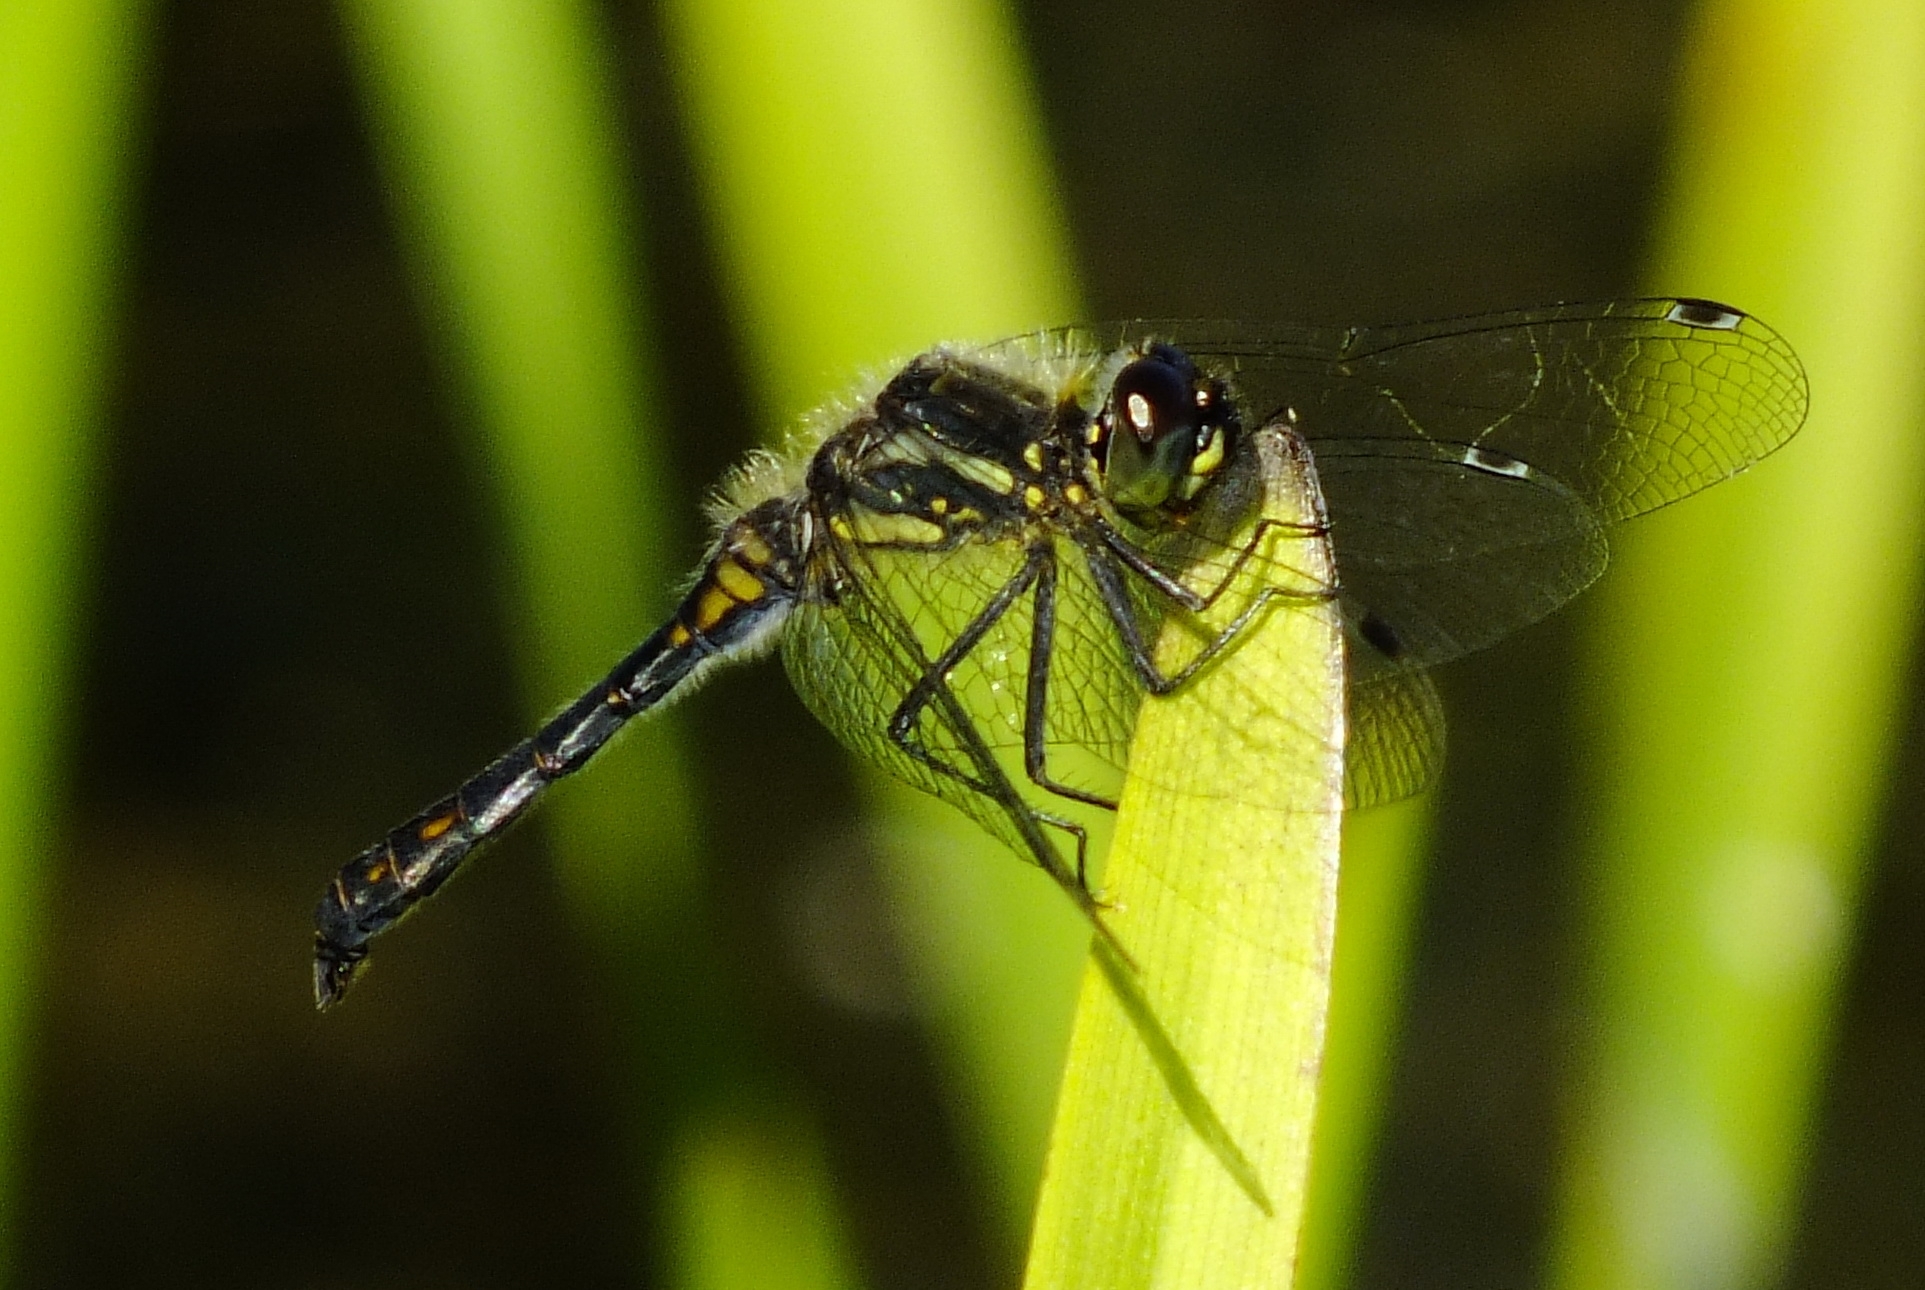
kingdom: Animalia
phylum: Arthropoda
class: Insecta
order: Odonata
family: Libellulidae
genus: Sympetrum
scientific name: Sympetrum danae
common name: Black darter
